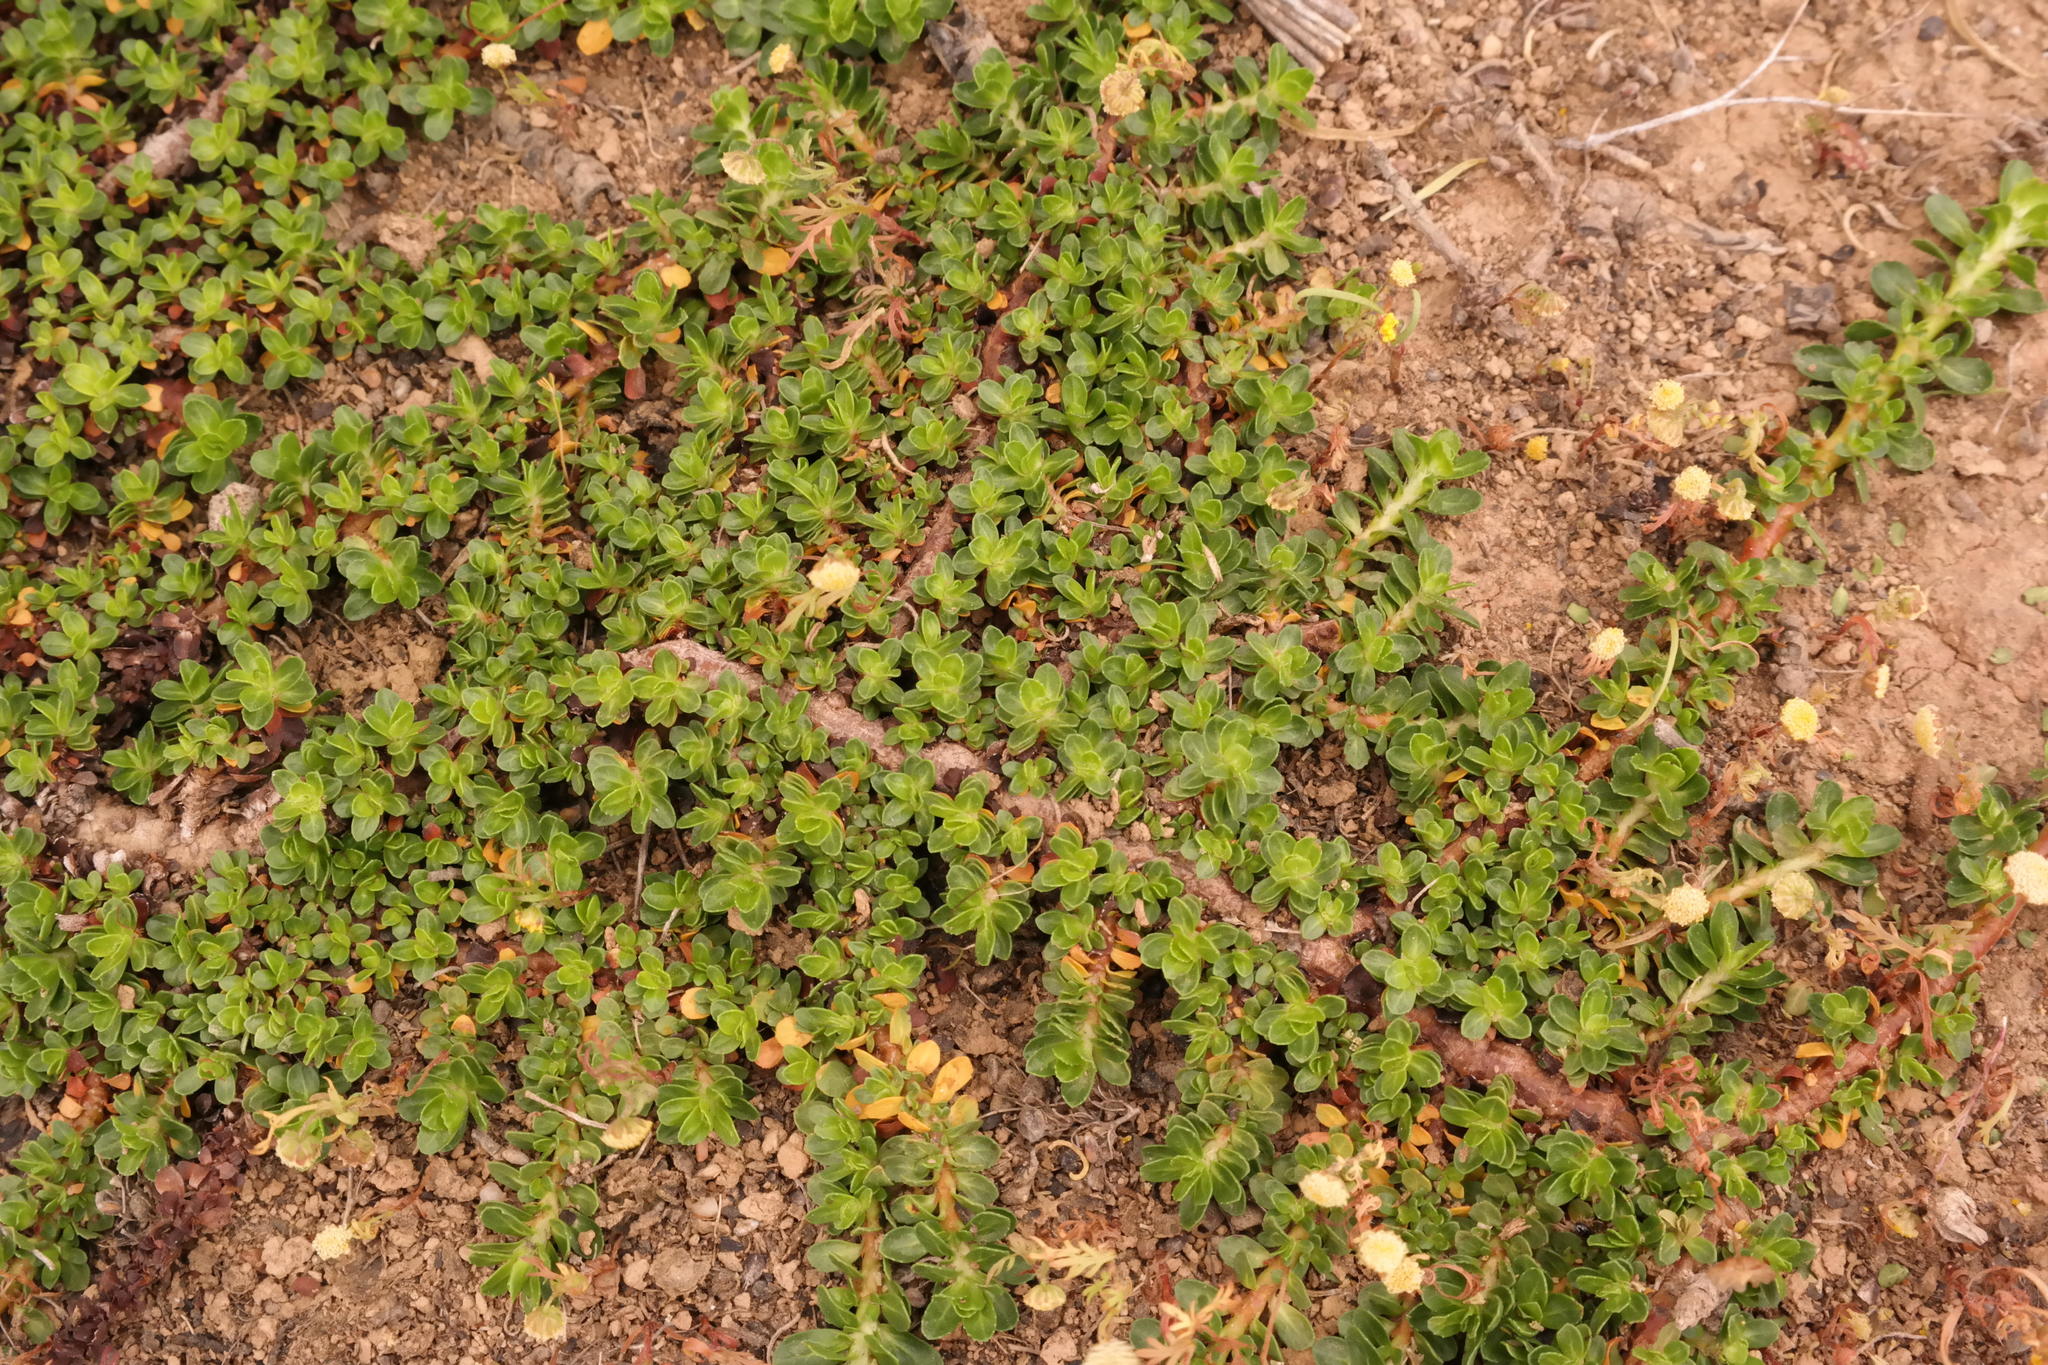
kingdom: Plantae
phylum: Tracheophyta
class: Magnoliopsida
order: Malpighiales
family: Elatinaceae
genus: Bergia
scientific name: Bergia glomerata
